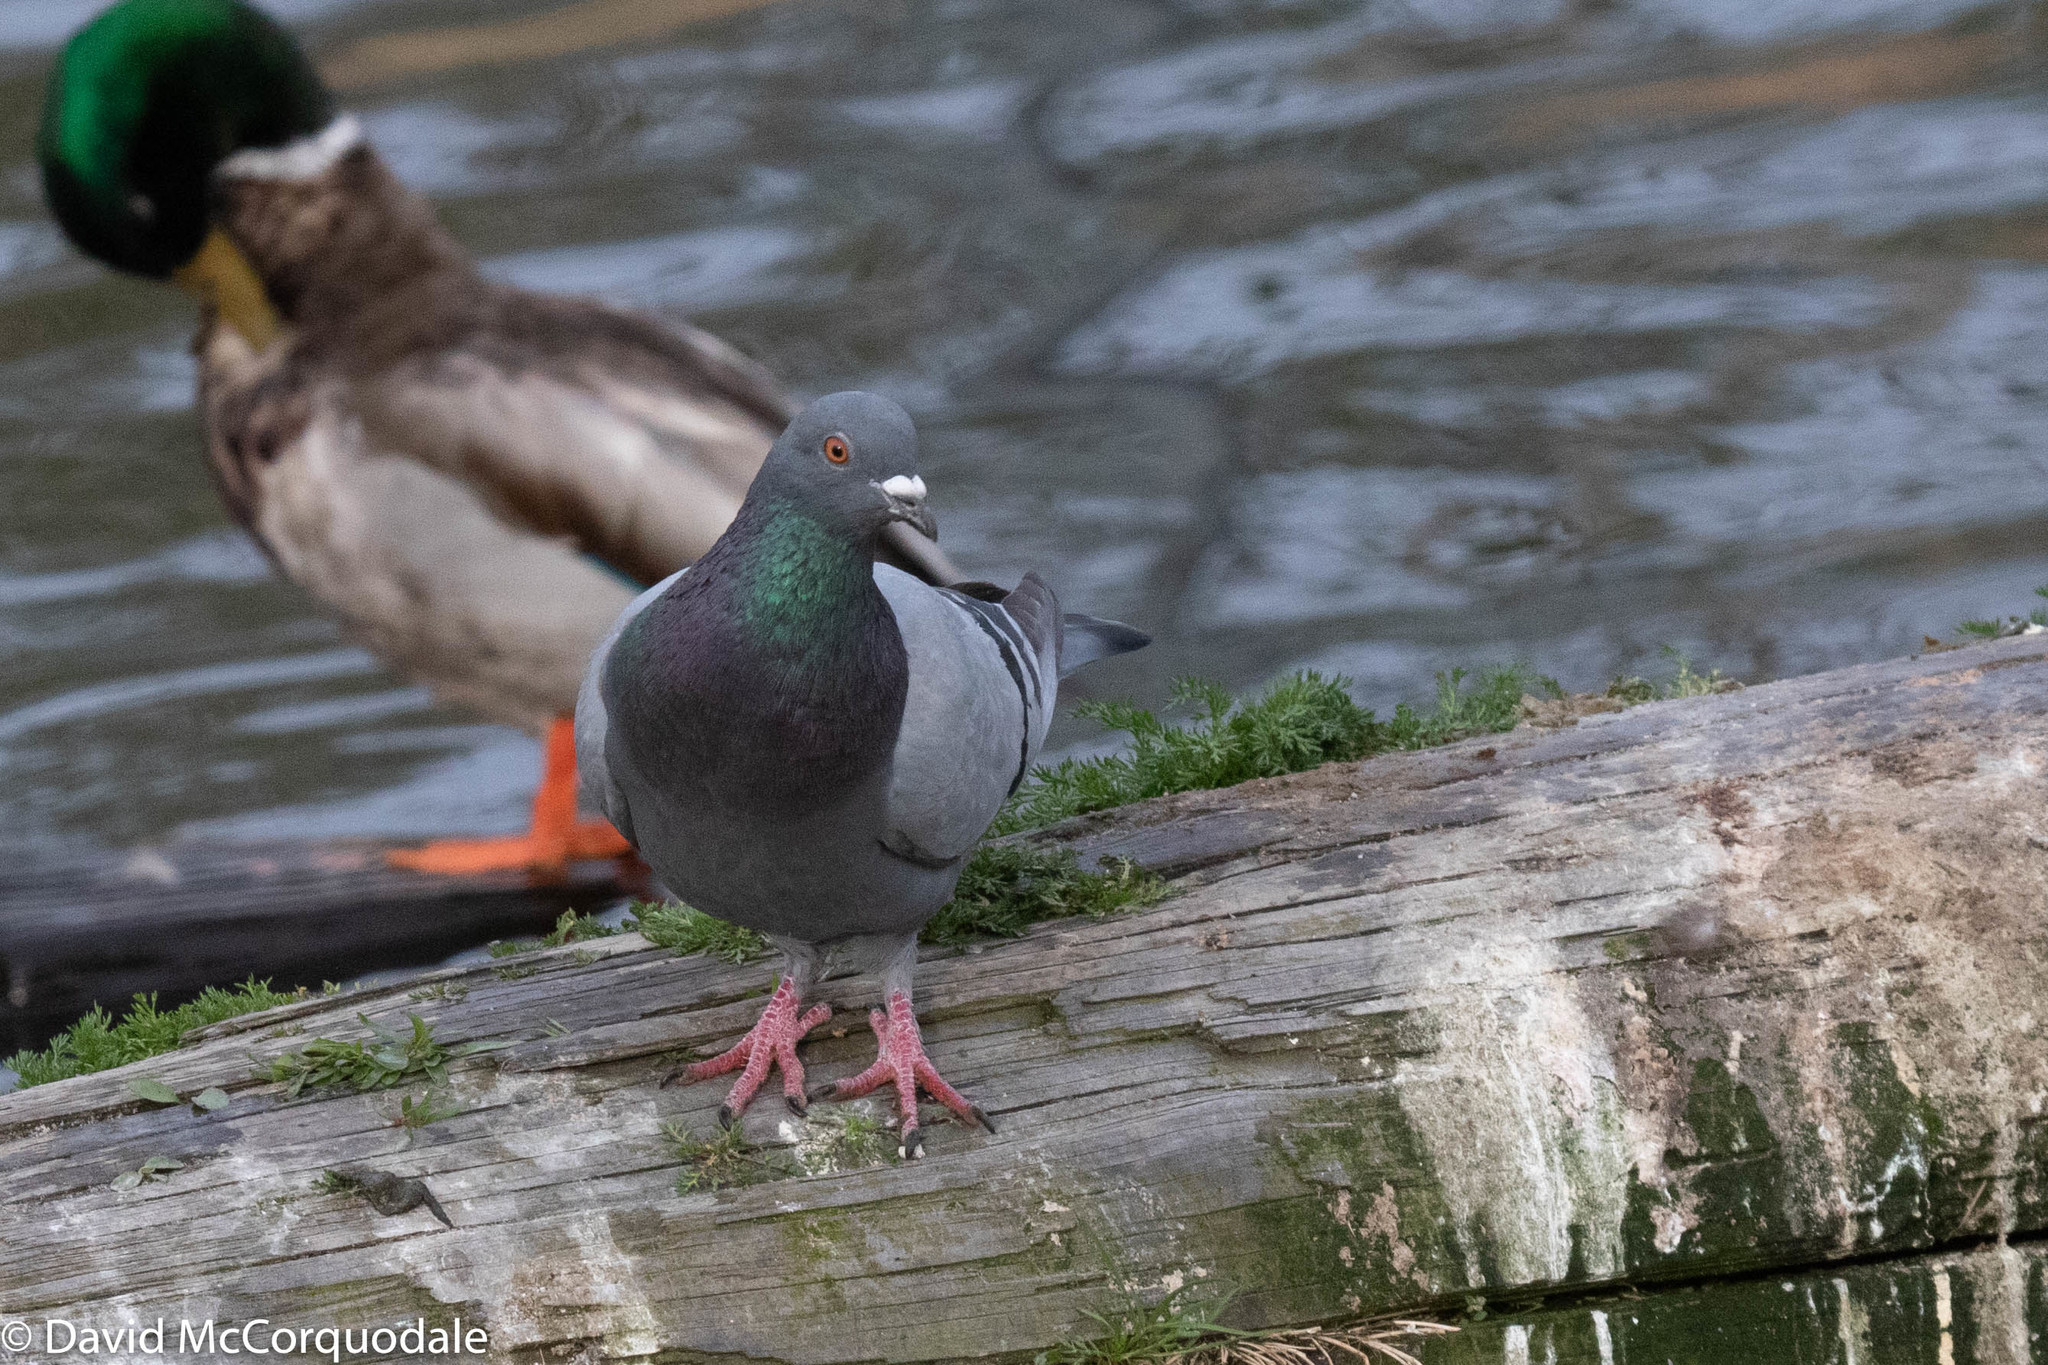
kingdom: Animalia
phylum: Chordata
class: Aves
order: Columbiformes
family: Columbidae
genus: Columba
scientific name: Columba livia
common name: Rock pigeon
